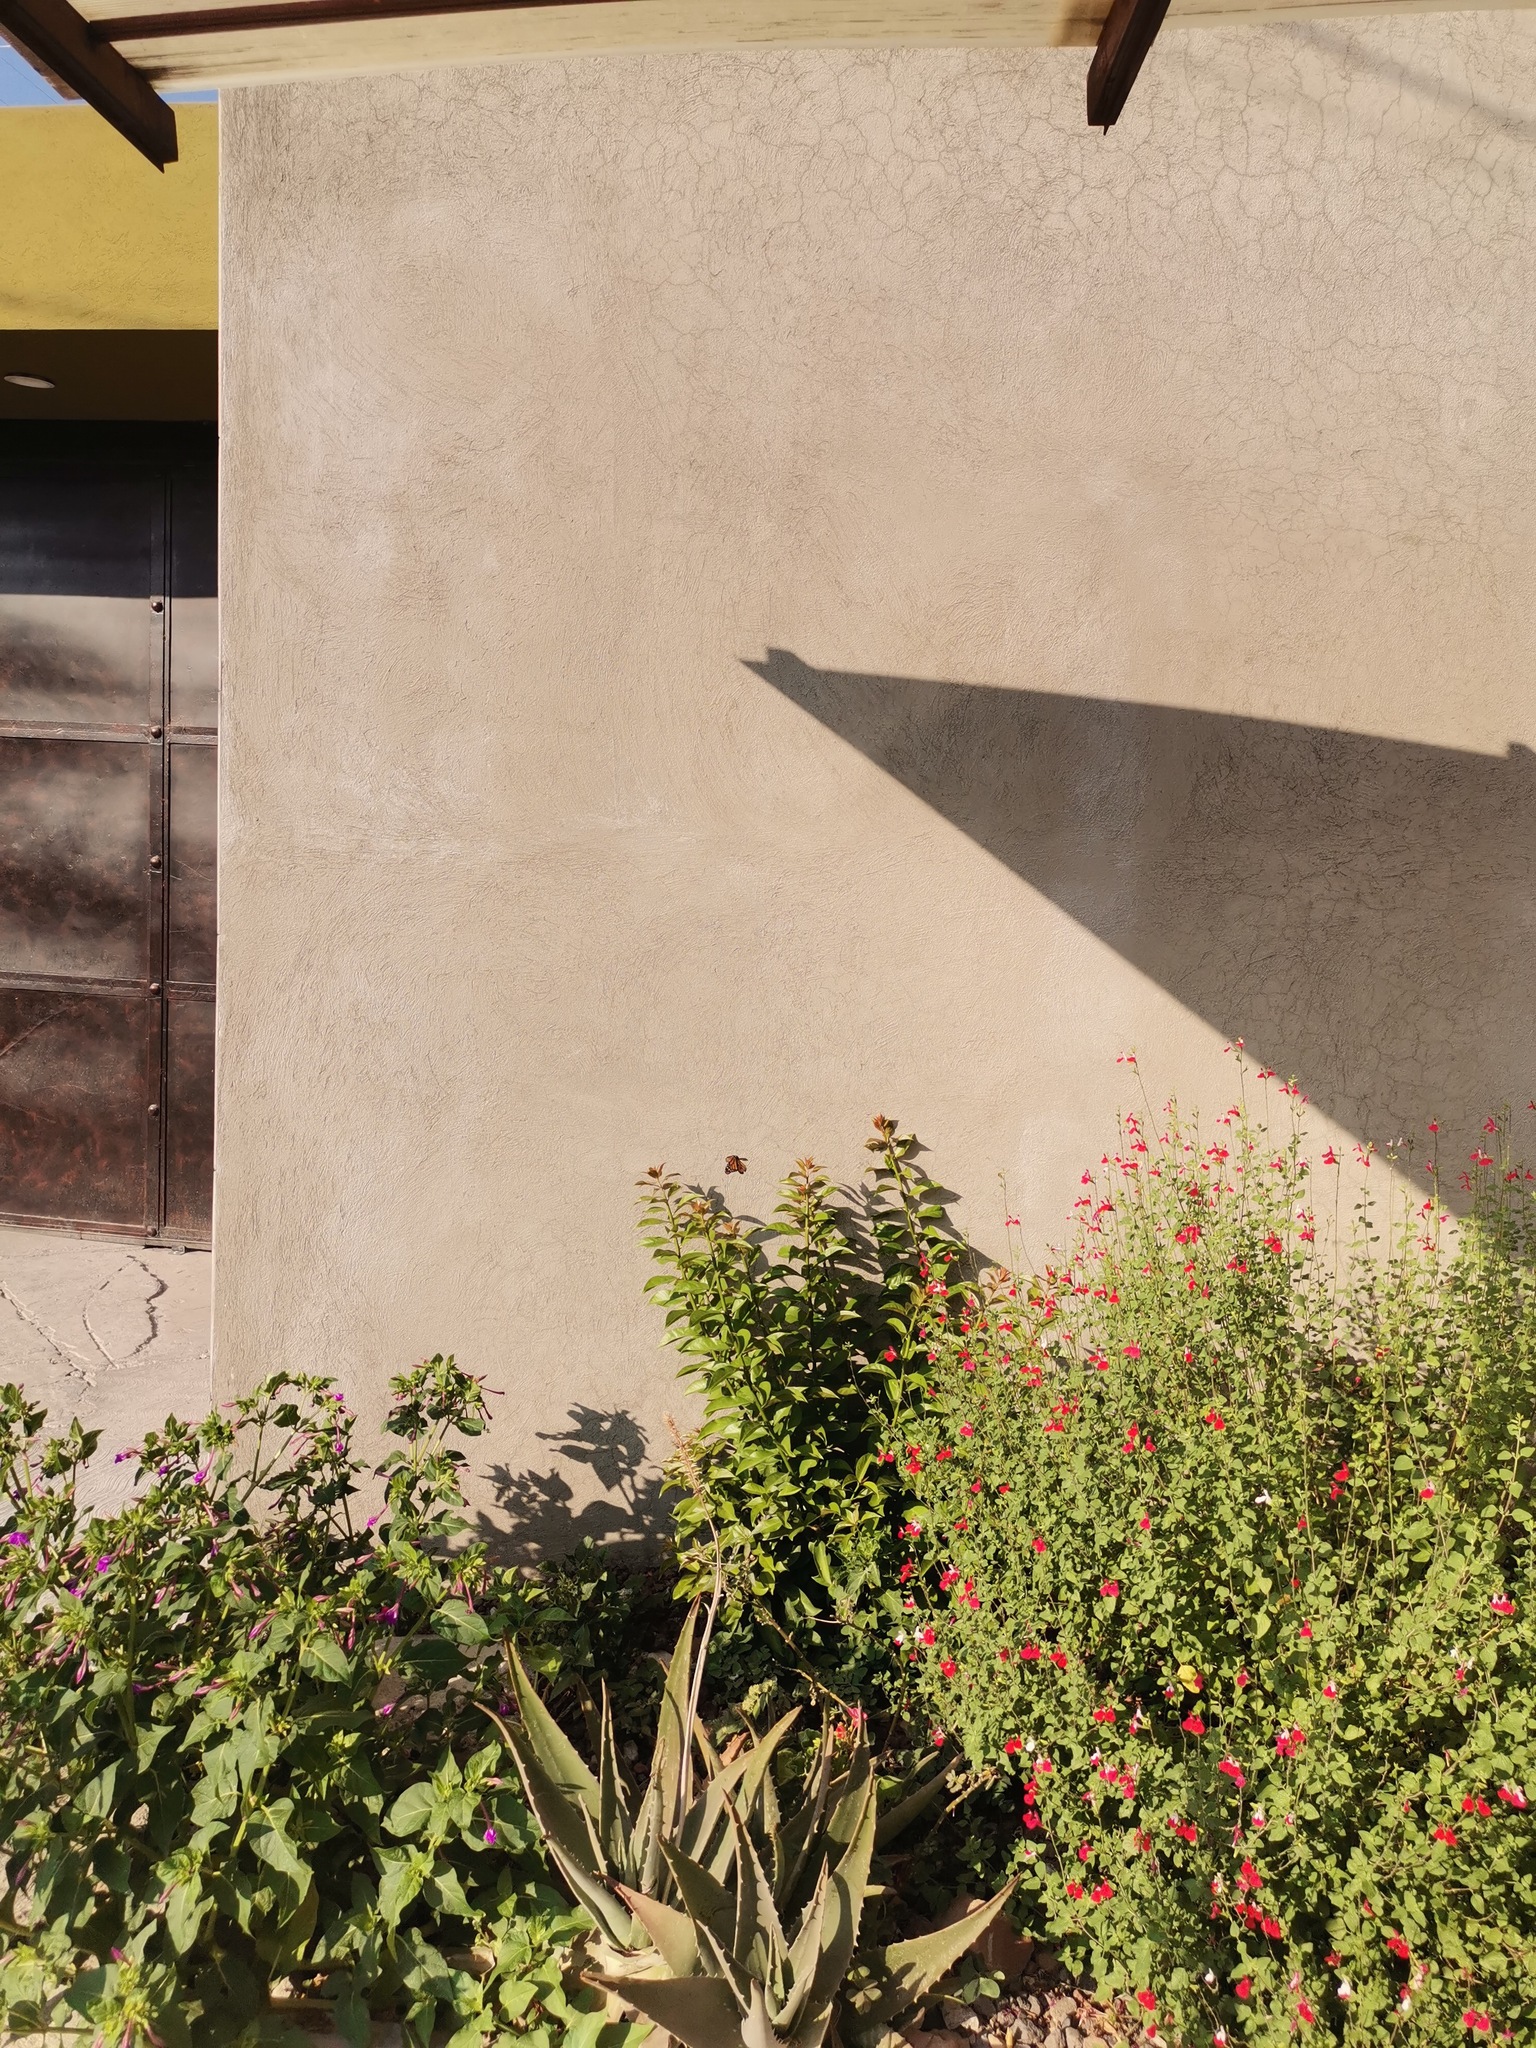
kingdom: Animalia
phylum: Arthropoda
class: Insecta
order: Lepidoptera
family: Nymphalidae
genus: Danaus
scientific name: Danaus plexippus
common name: Monarch
